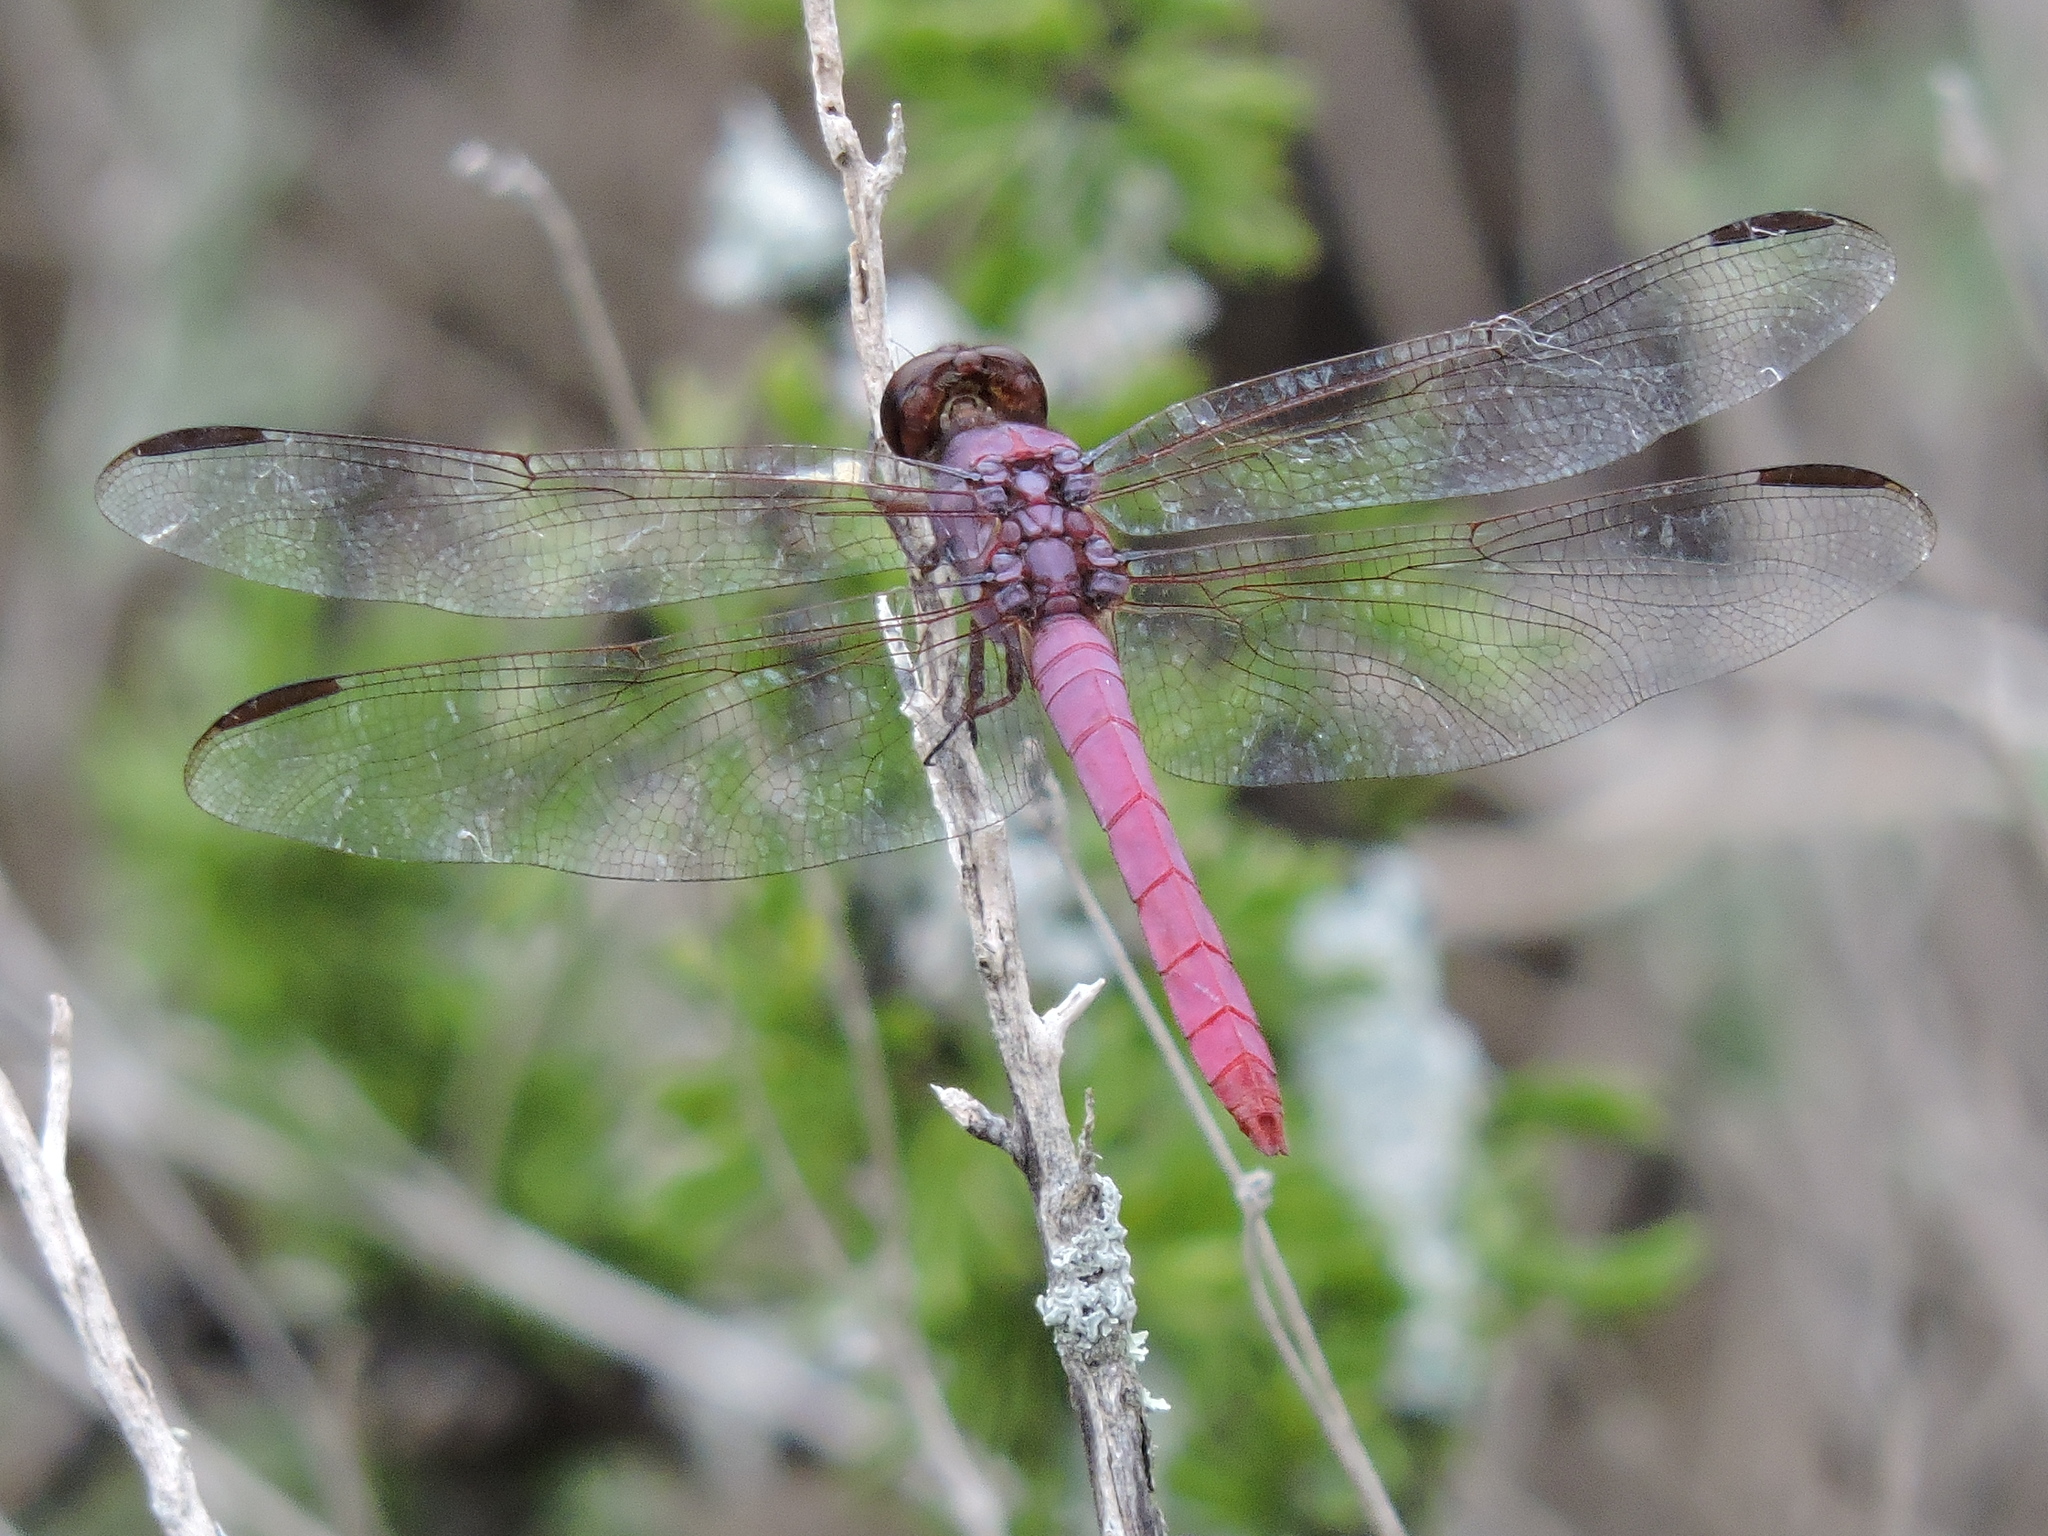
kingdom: Animalia
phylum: Arthropoda
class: Insecta
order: Odonata
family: Libellulidae
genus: Orthemis
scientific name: Orthemis ferruginea
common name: Roseate skimmer
